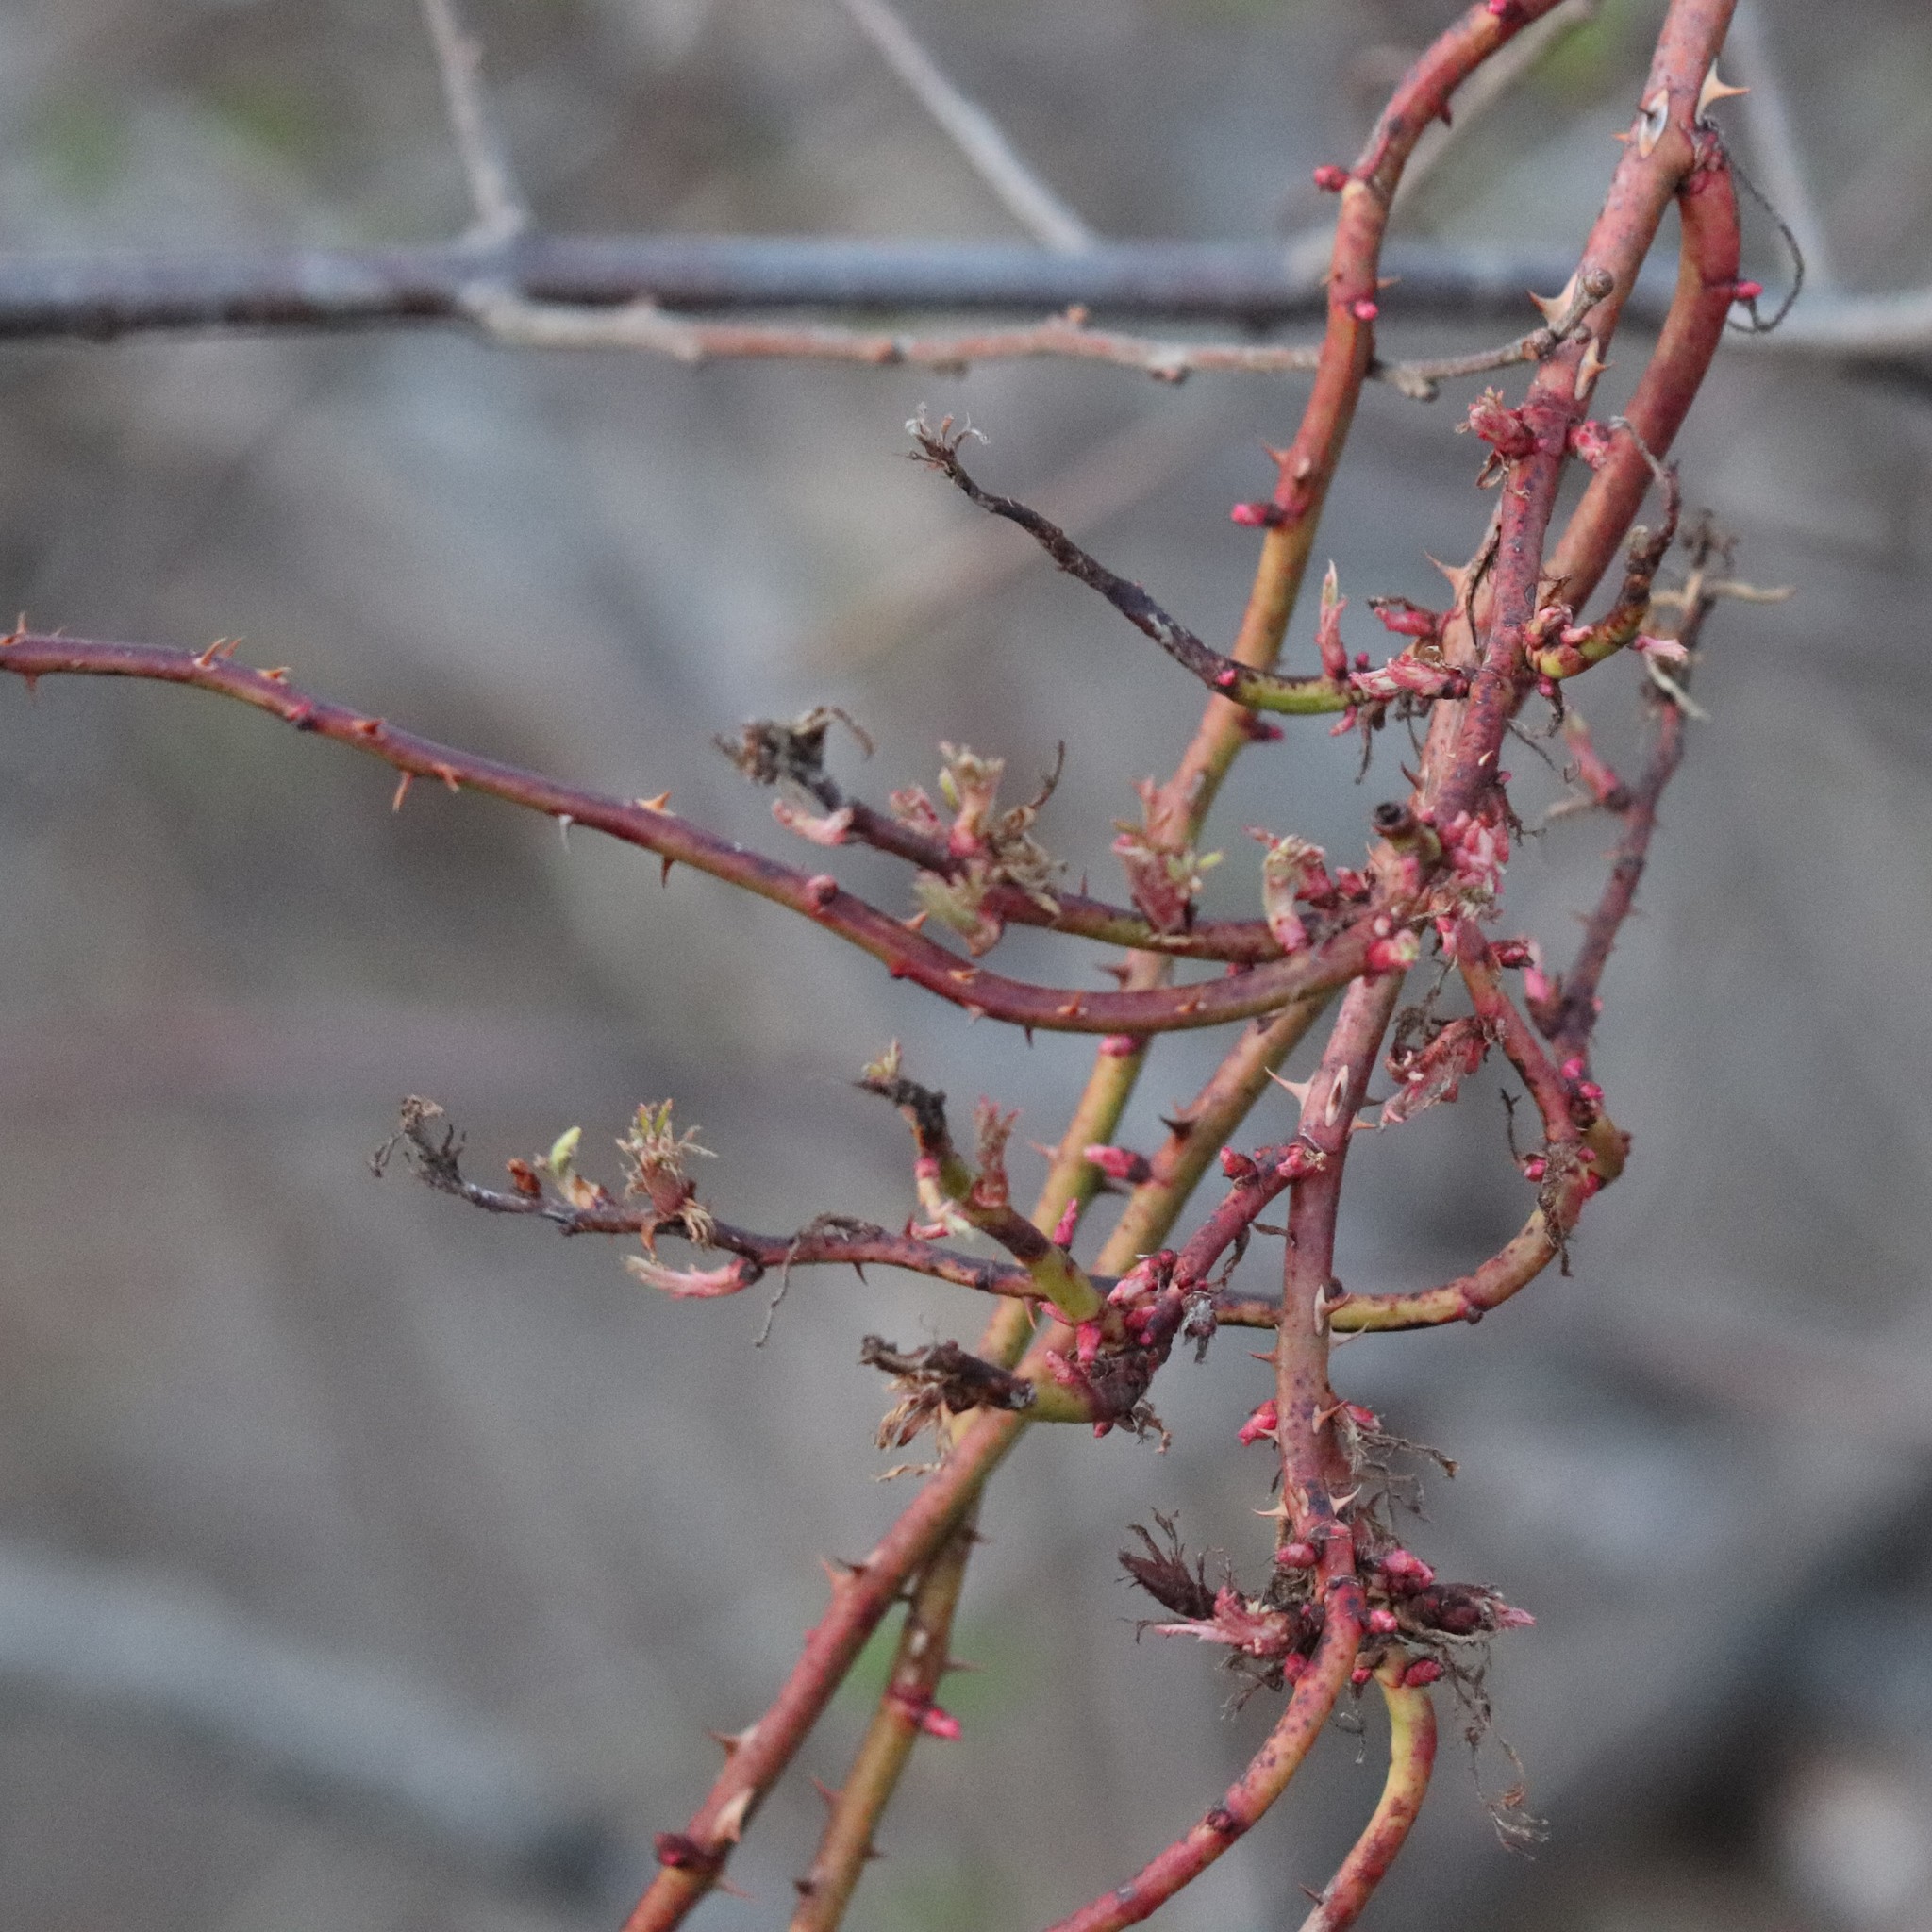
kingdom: Viruses
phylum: Negarnaviricota
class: Ellioviricetes
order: Bunyavirales
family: Fimoviridae
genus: Emaravirus
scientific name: Emaravirus rosae
